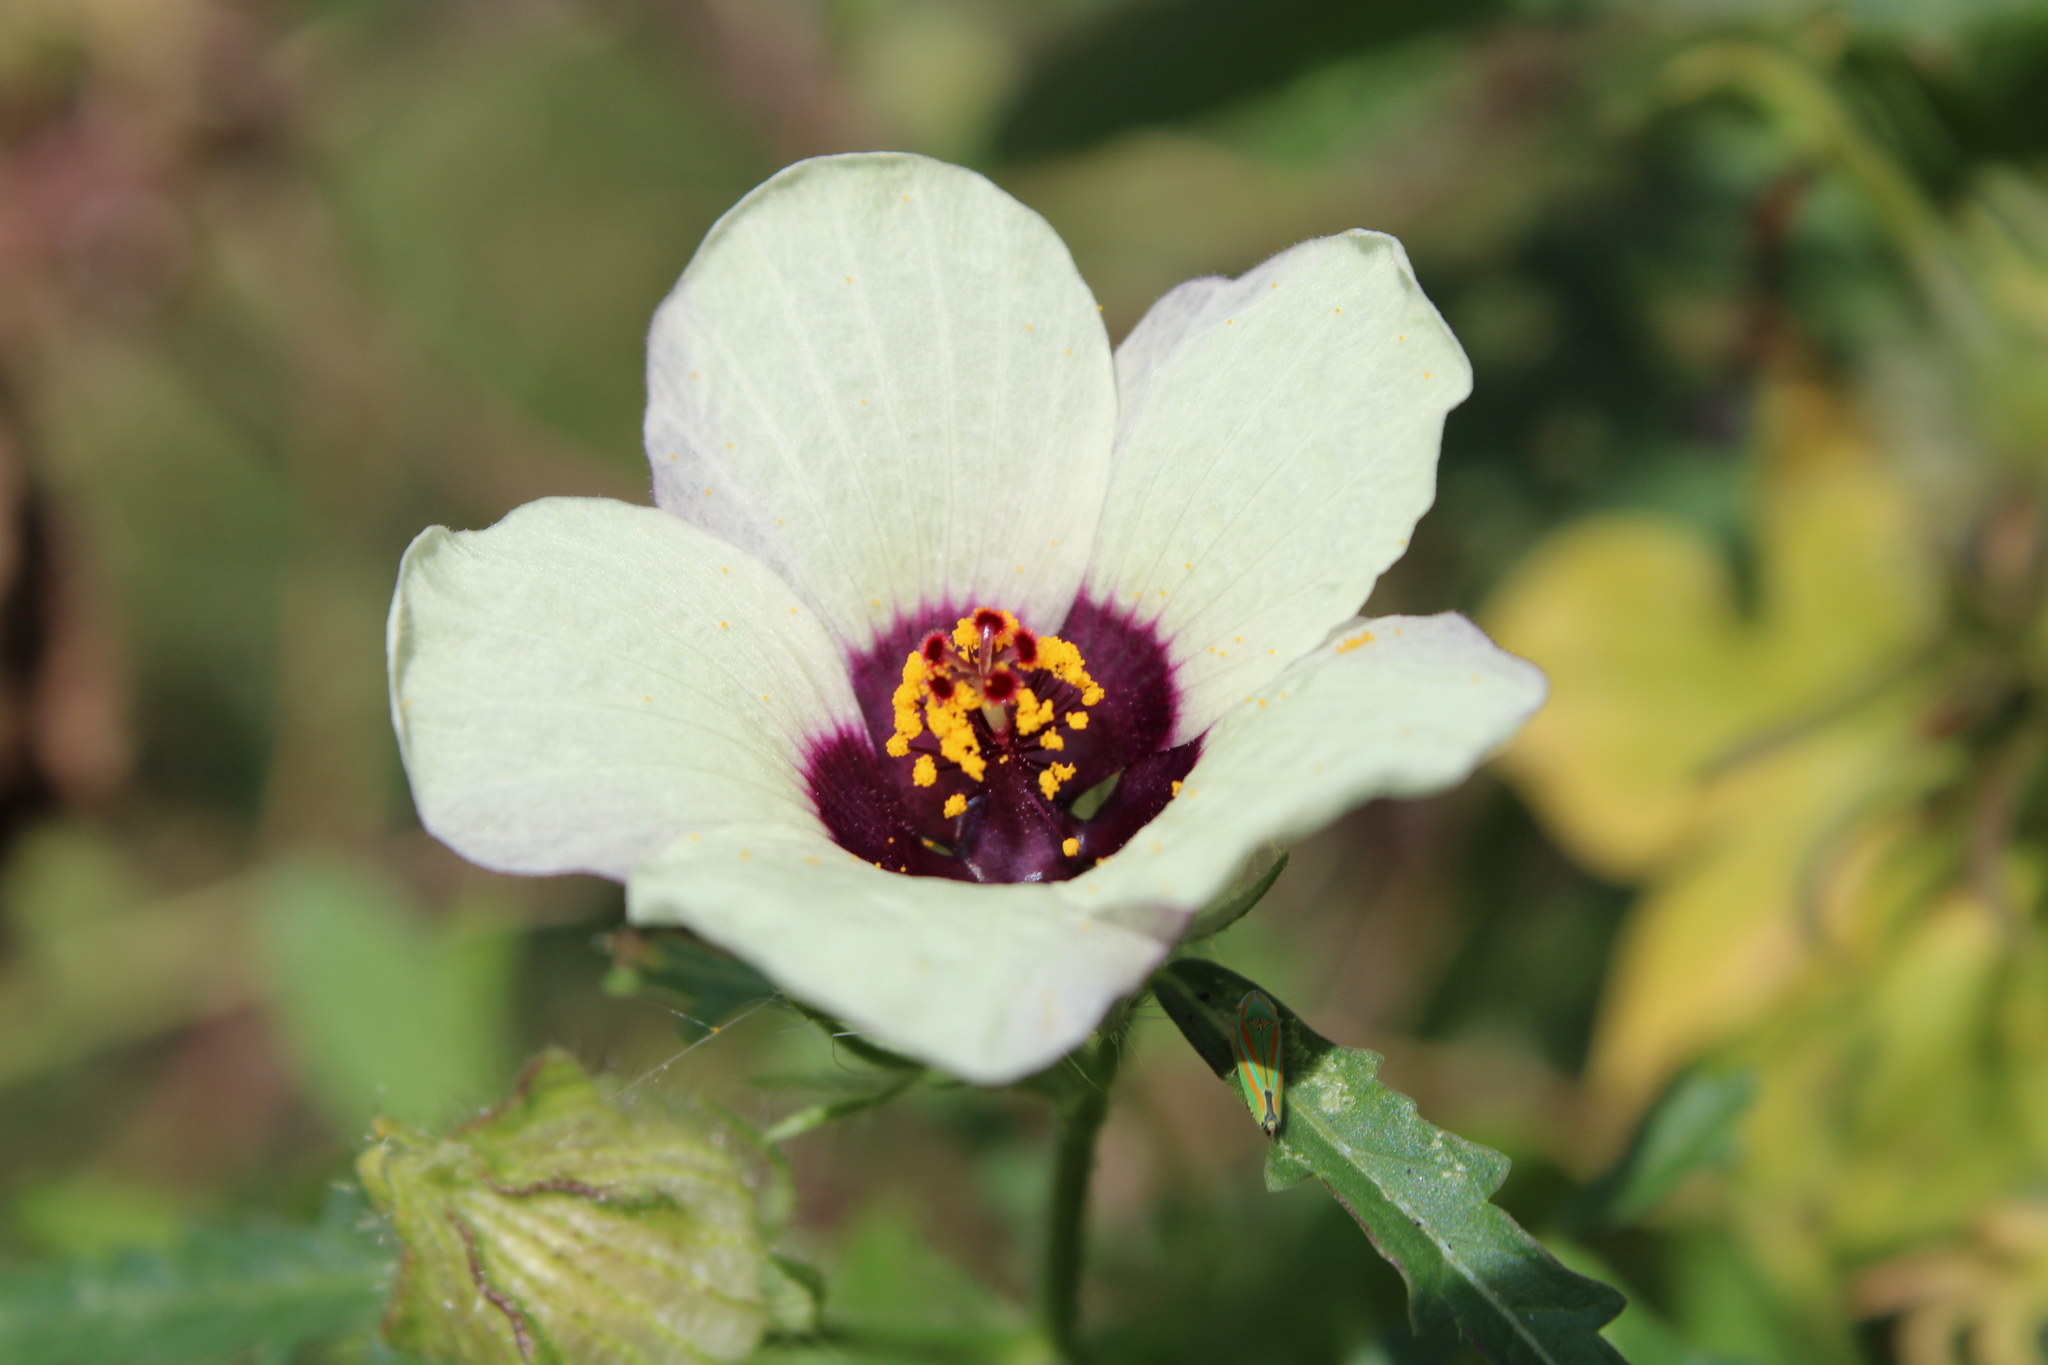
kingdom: Plantae
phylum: Tracheophyta
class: Magnoliopsida
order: Malvales
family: Malvaceae
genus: Hibiscus
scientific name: Hibiscus trionum
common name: Bladder ketmia
